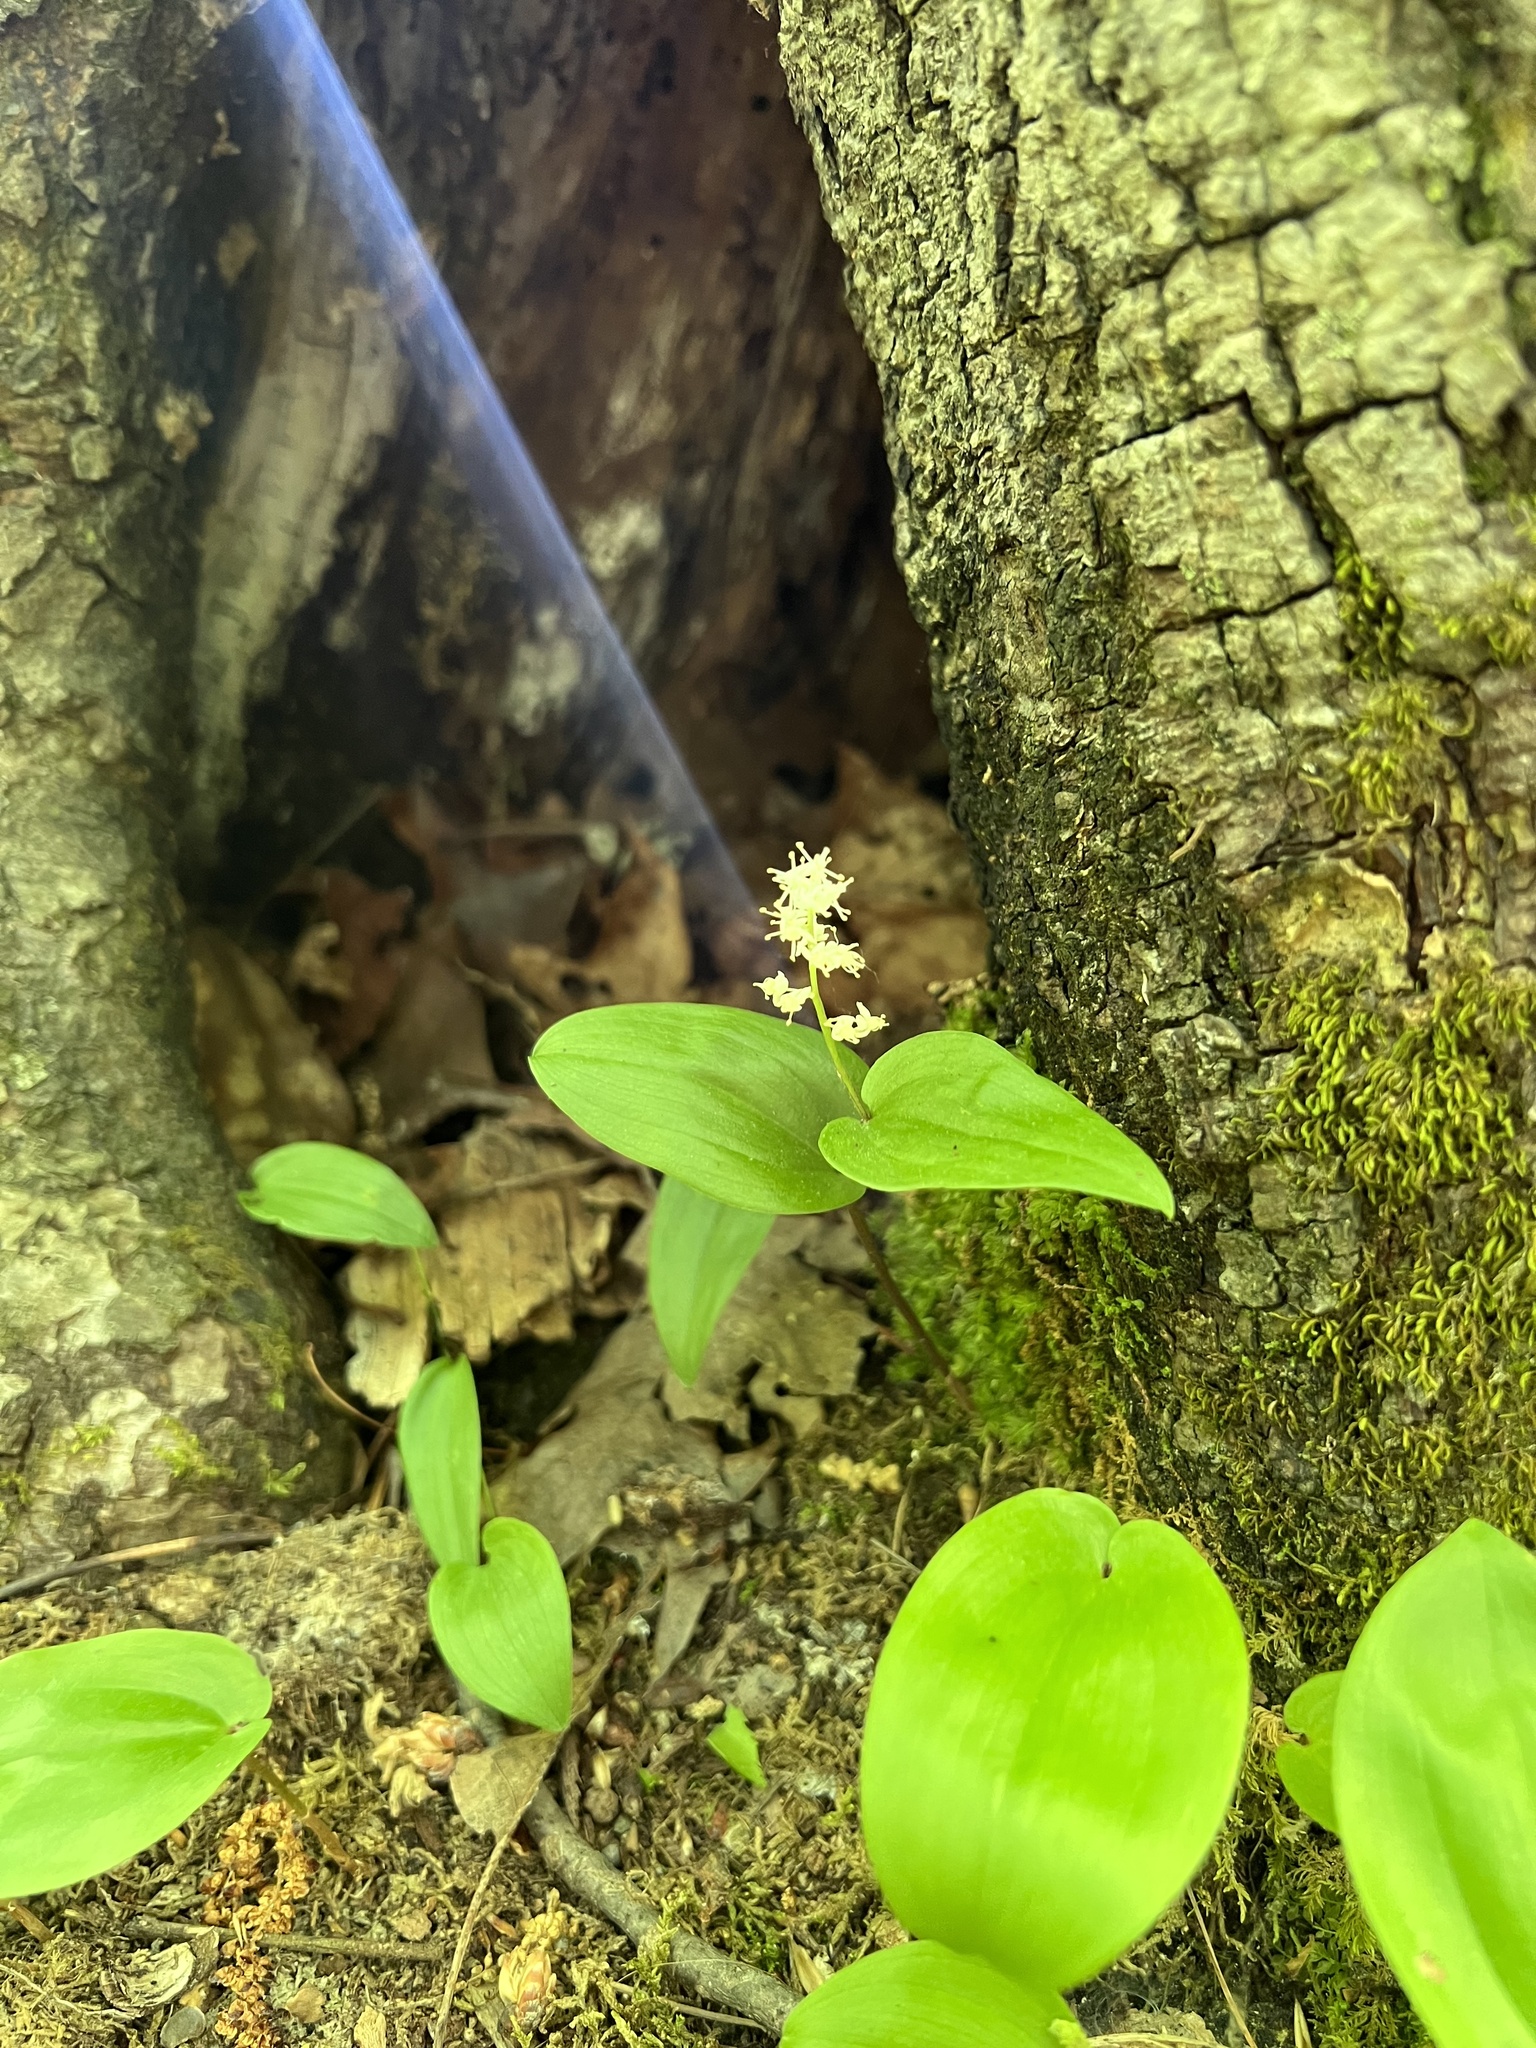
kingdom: Plantae
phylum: Tracheophyta
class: Liliopsida
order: Asparagales
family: Asparagaceae
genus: Maianthemum
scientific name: Maianthemum canadense
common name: False lily-of-the-valley
